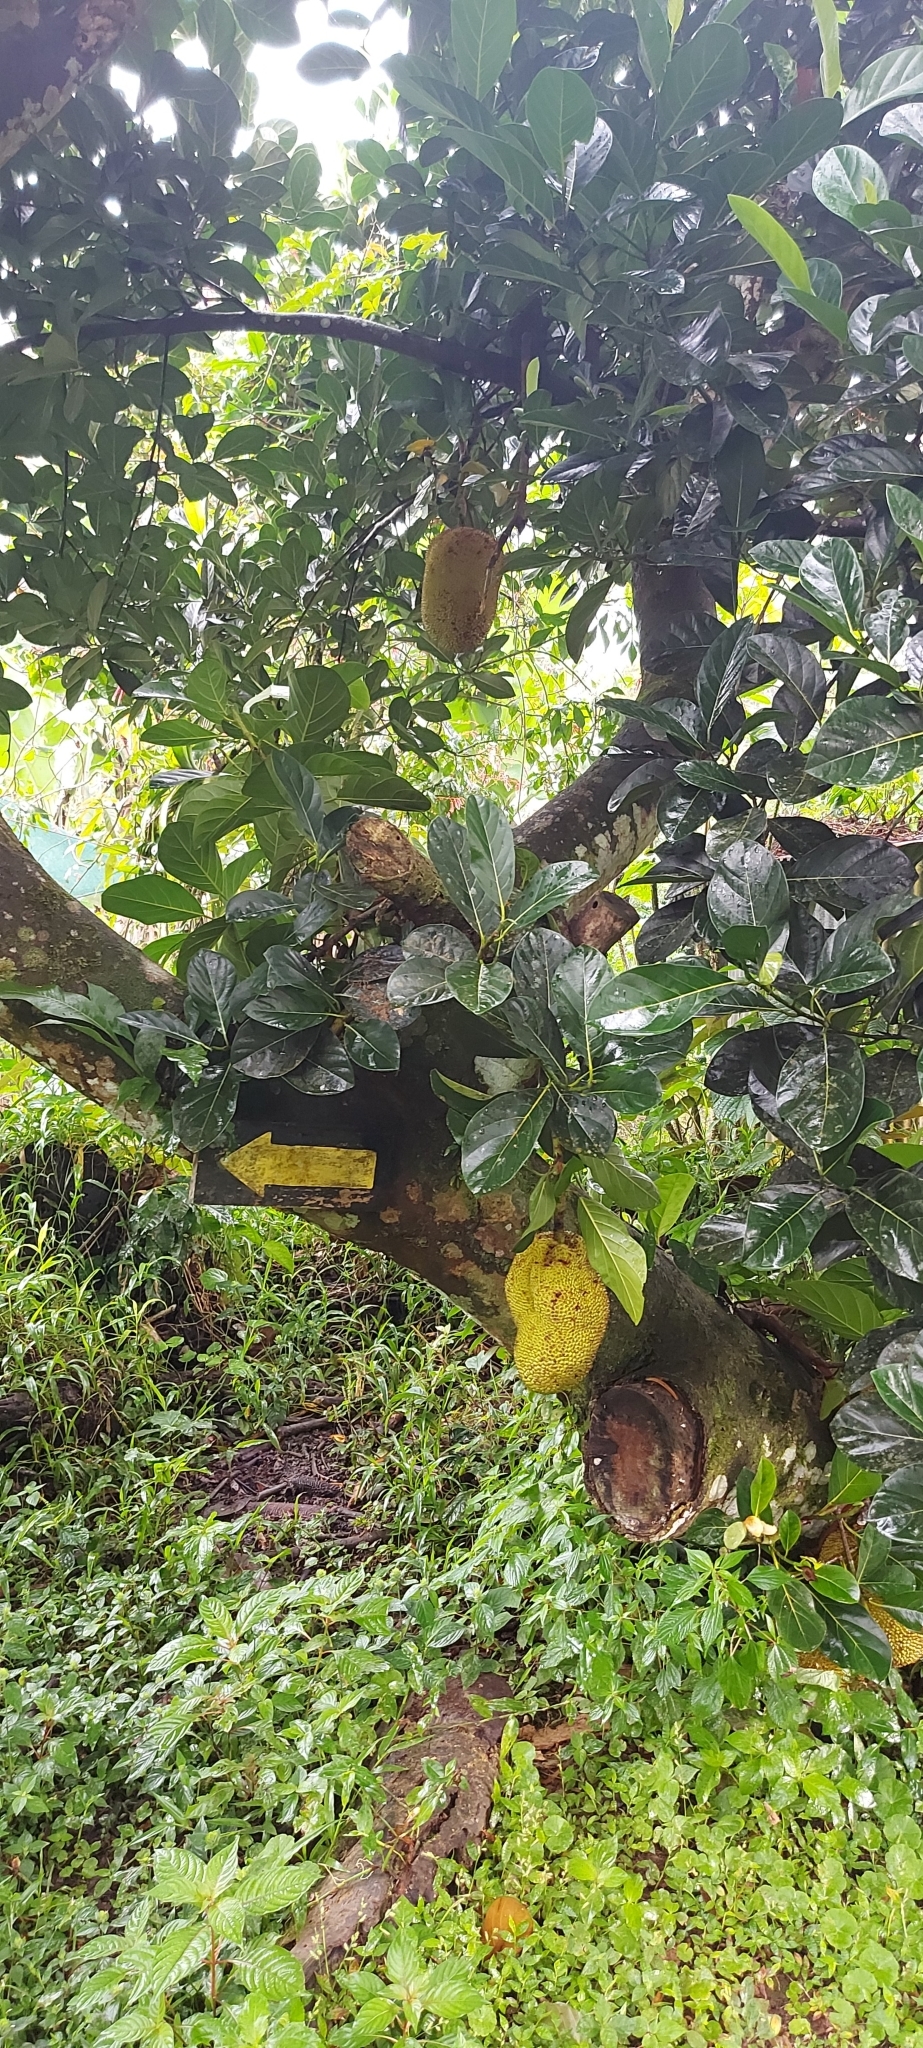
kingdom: Plantae
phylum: Tracheophyta
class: Magnoliopsida
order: Rosales
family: Moraceae
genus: Artocarpus
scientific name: Artocarpus heterophyllus
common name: Jackfruit
